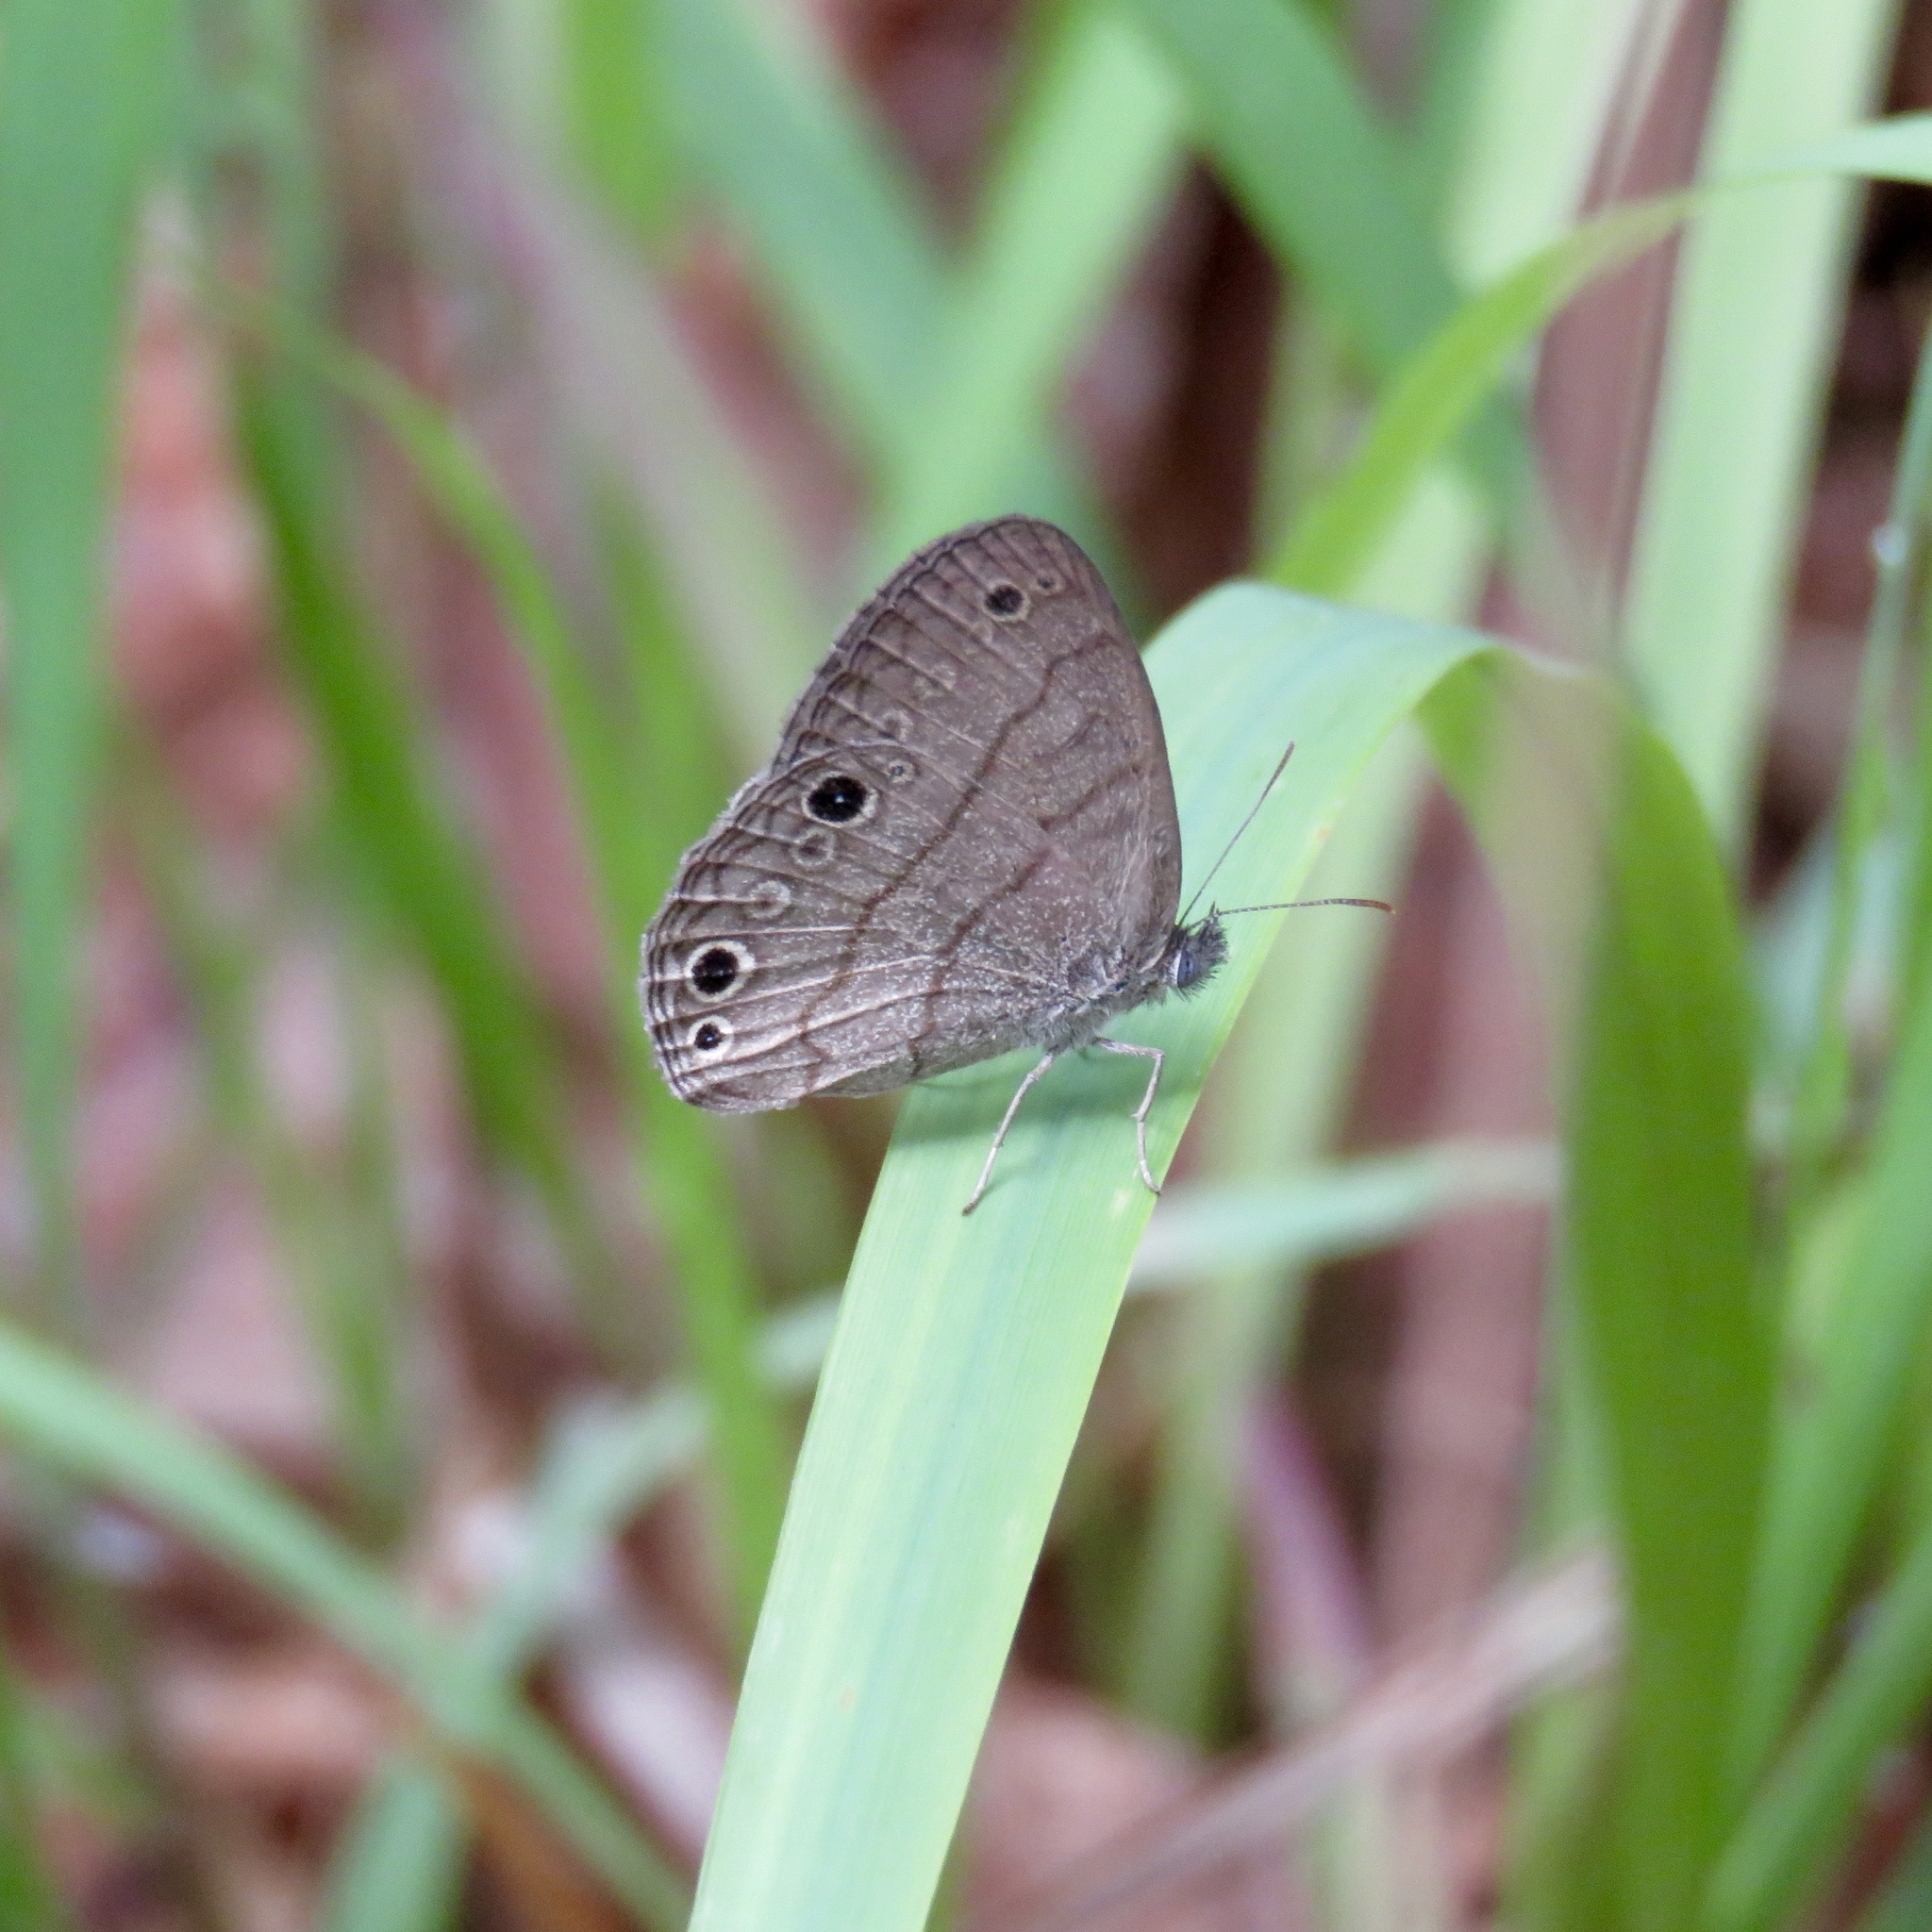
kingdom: Animalia
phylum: Arthropoda
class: Insecta
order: Lepidoptera
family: Nymphalidae
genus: Hermeuptychia
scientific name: Hermeuptychia intricata
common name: Intricate satyr
